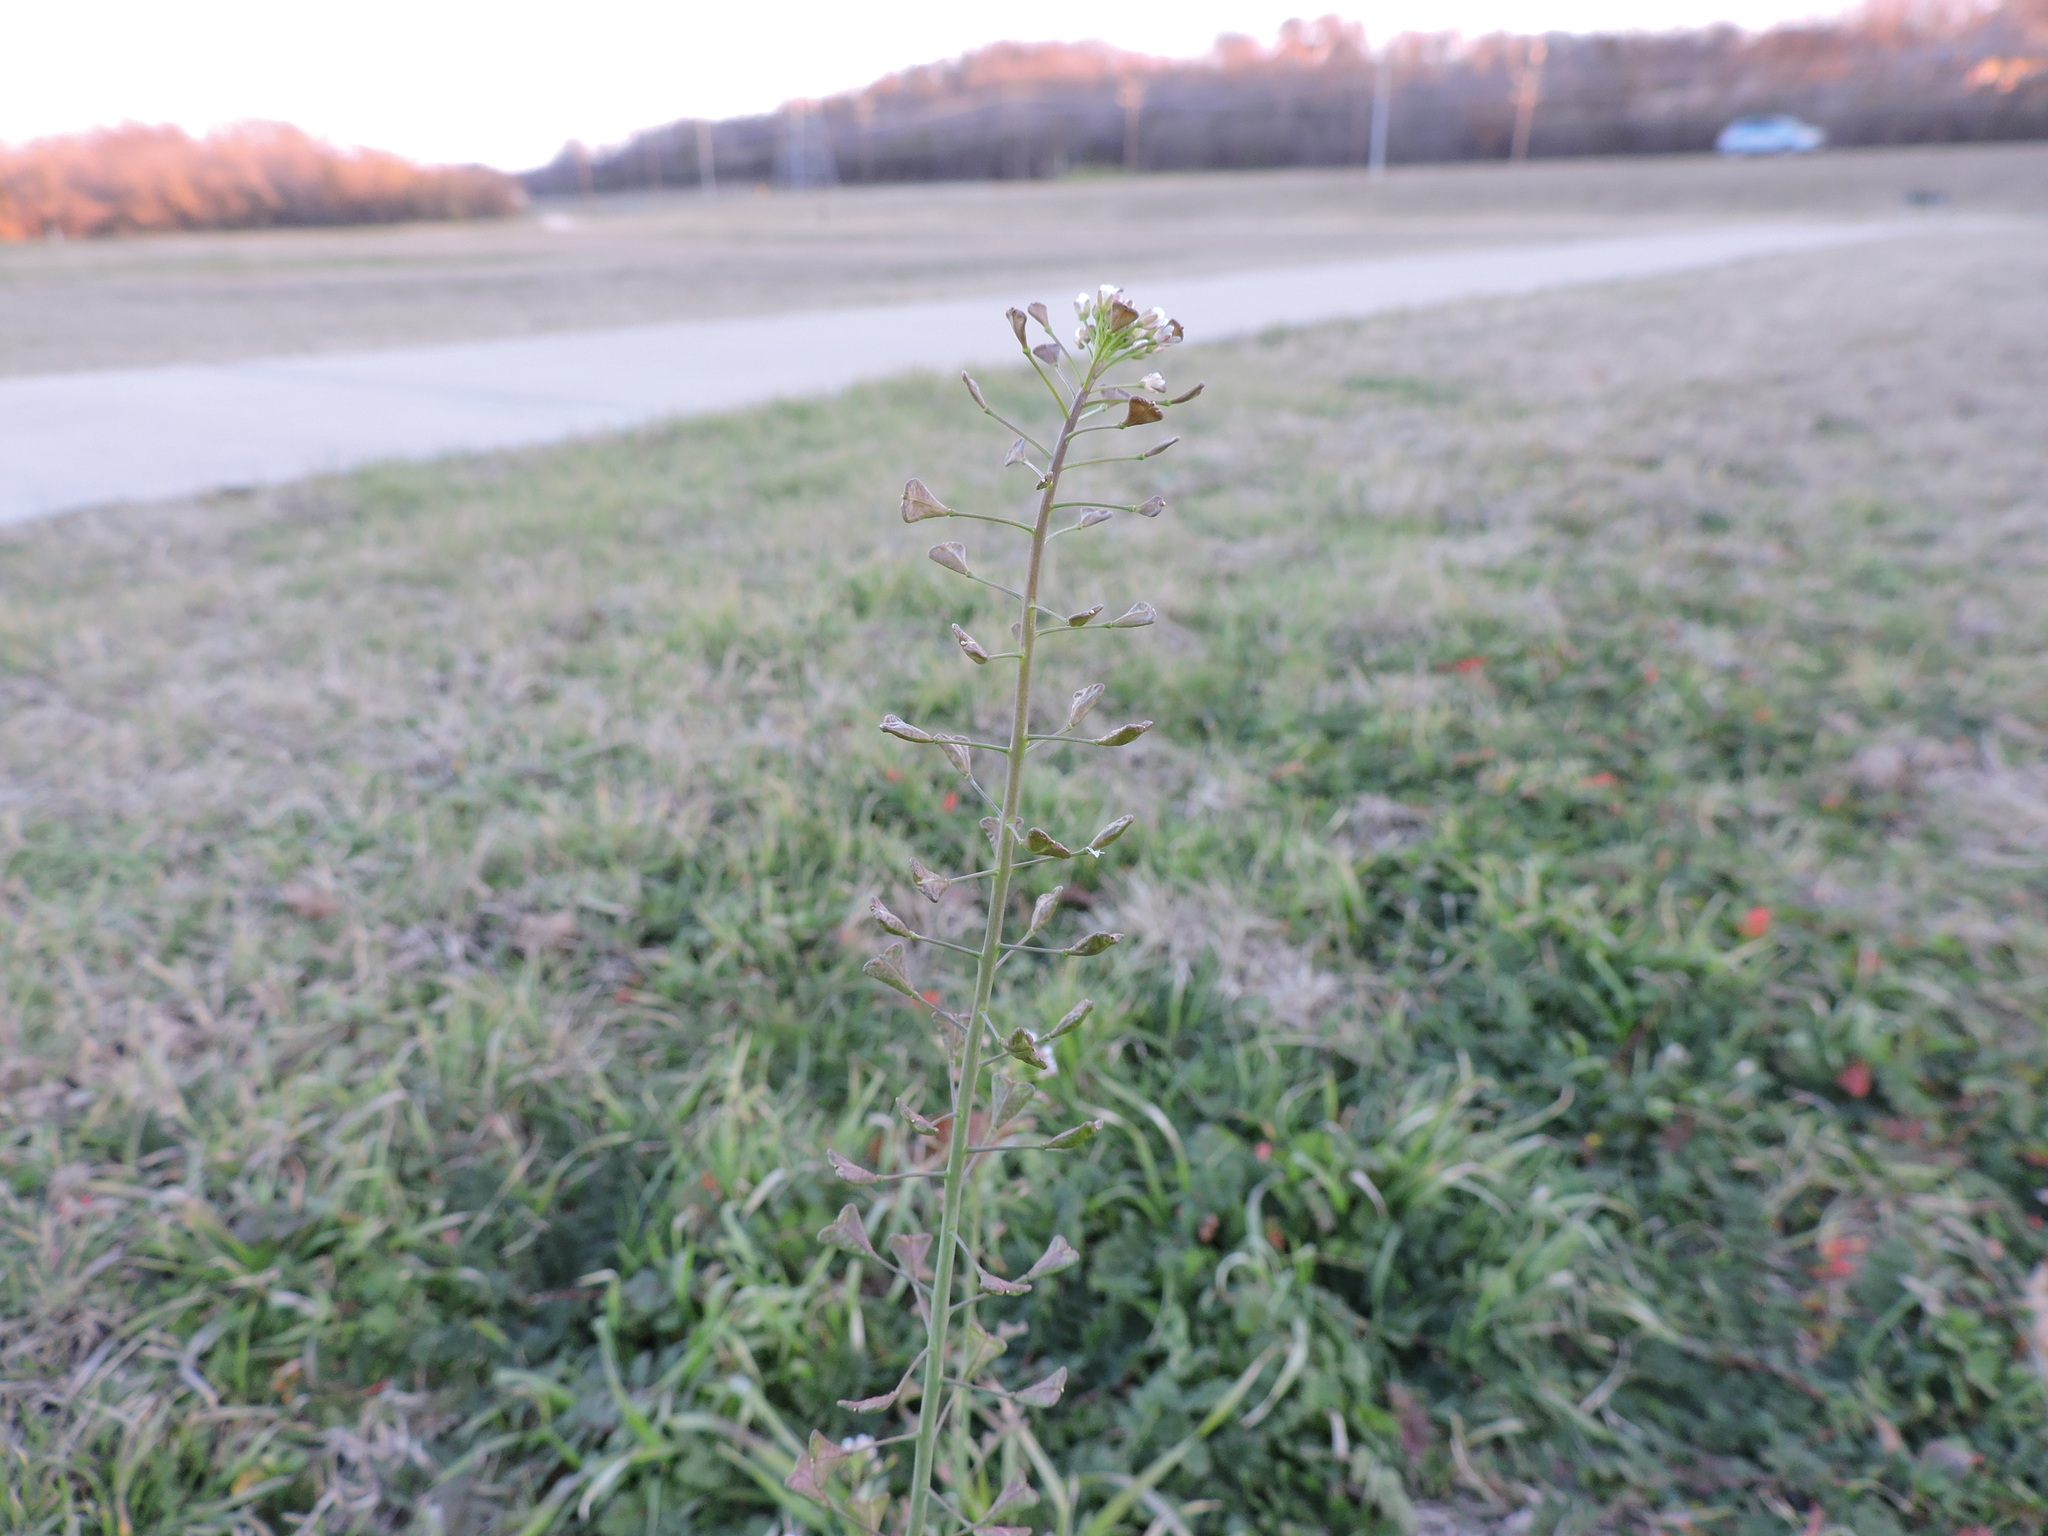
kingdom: Plantae
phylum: Tracheophyta
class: Magnoliopsida
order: Brassicales
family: Brassicaceae
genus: Capsella
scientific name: Capsella bursa-pastoris
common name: Shepherd's purse
